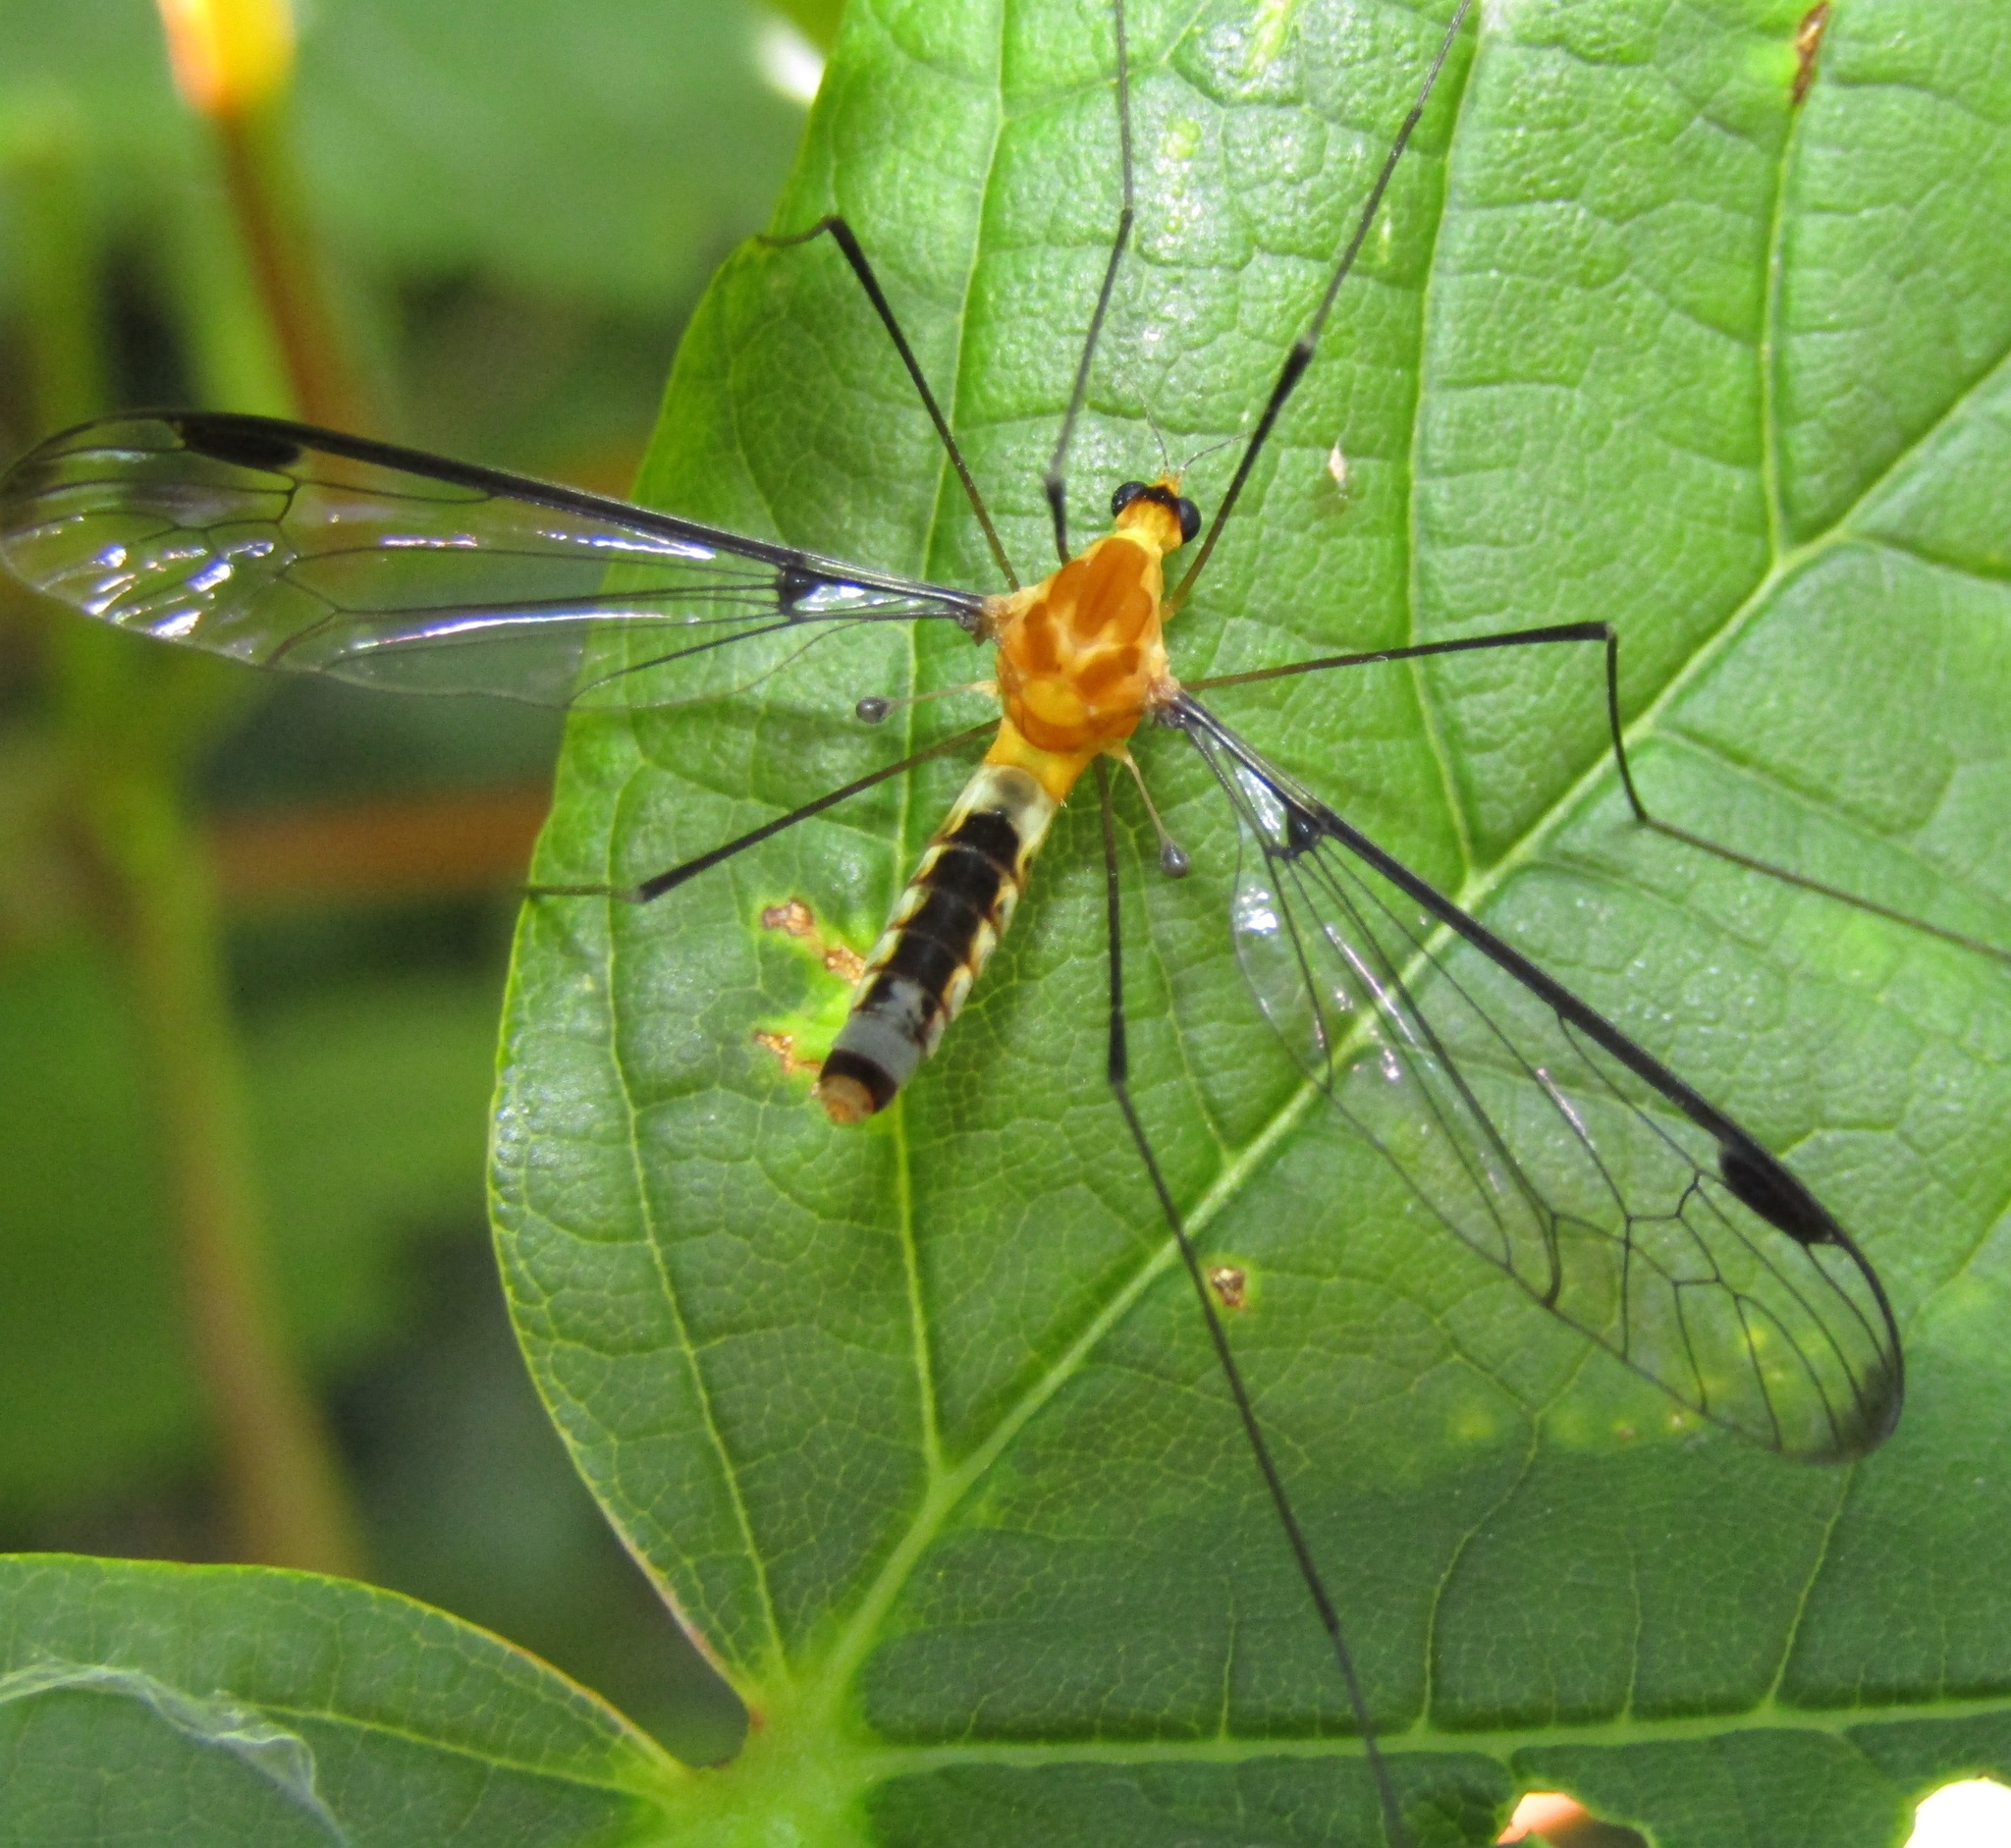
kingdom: Animalia
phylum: Arthropoda
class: Insecta
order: Diptera
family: Tipulidae
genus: Aurotipula
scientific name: Aurotipula
